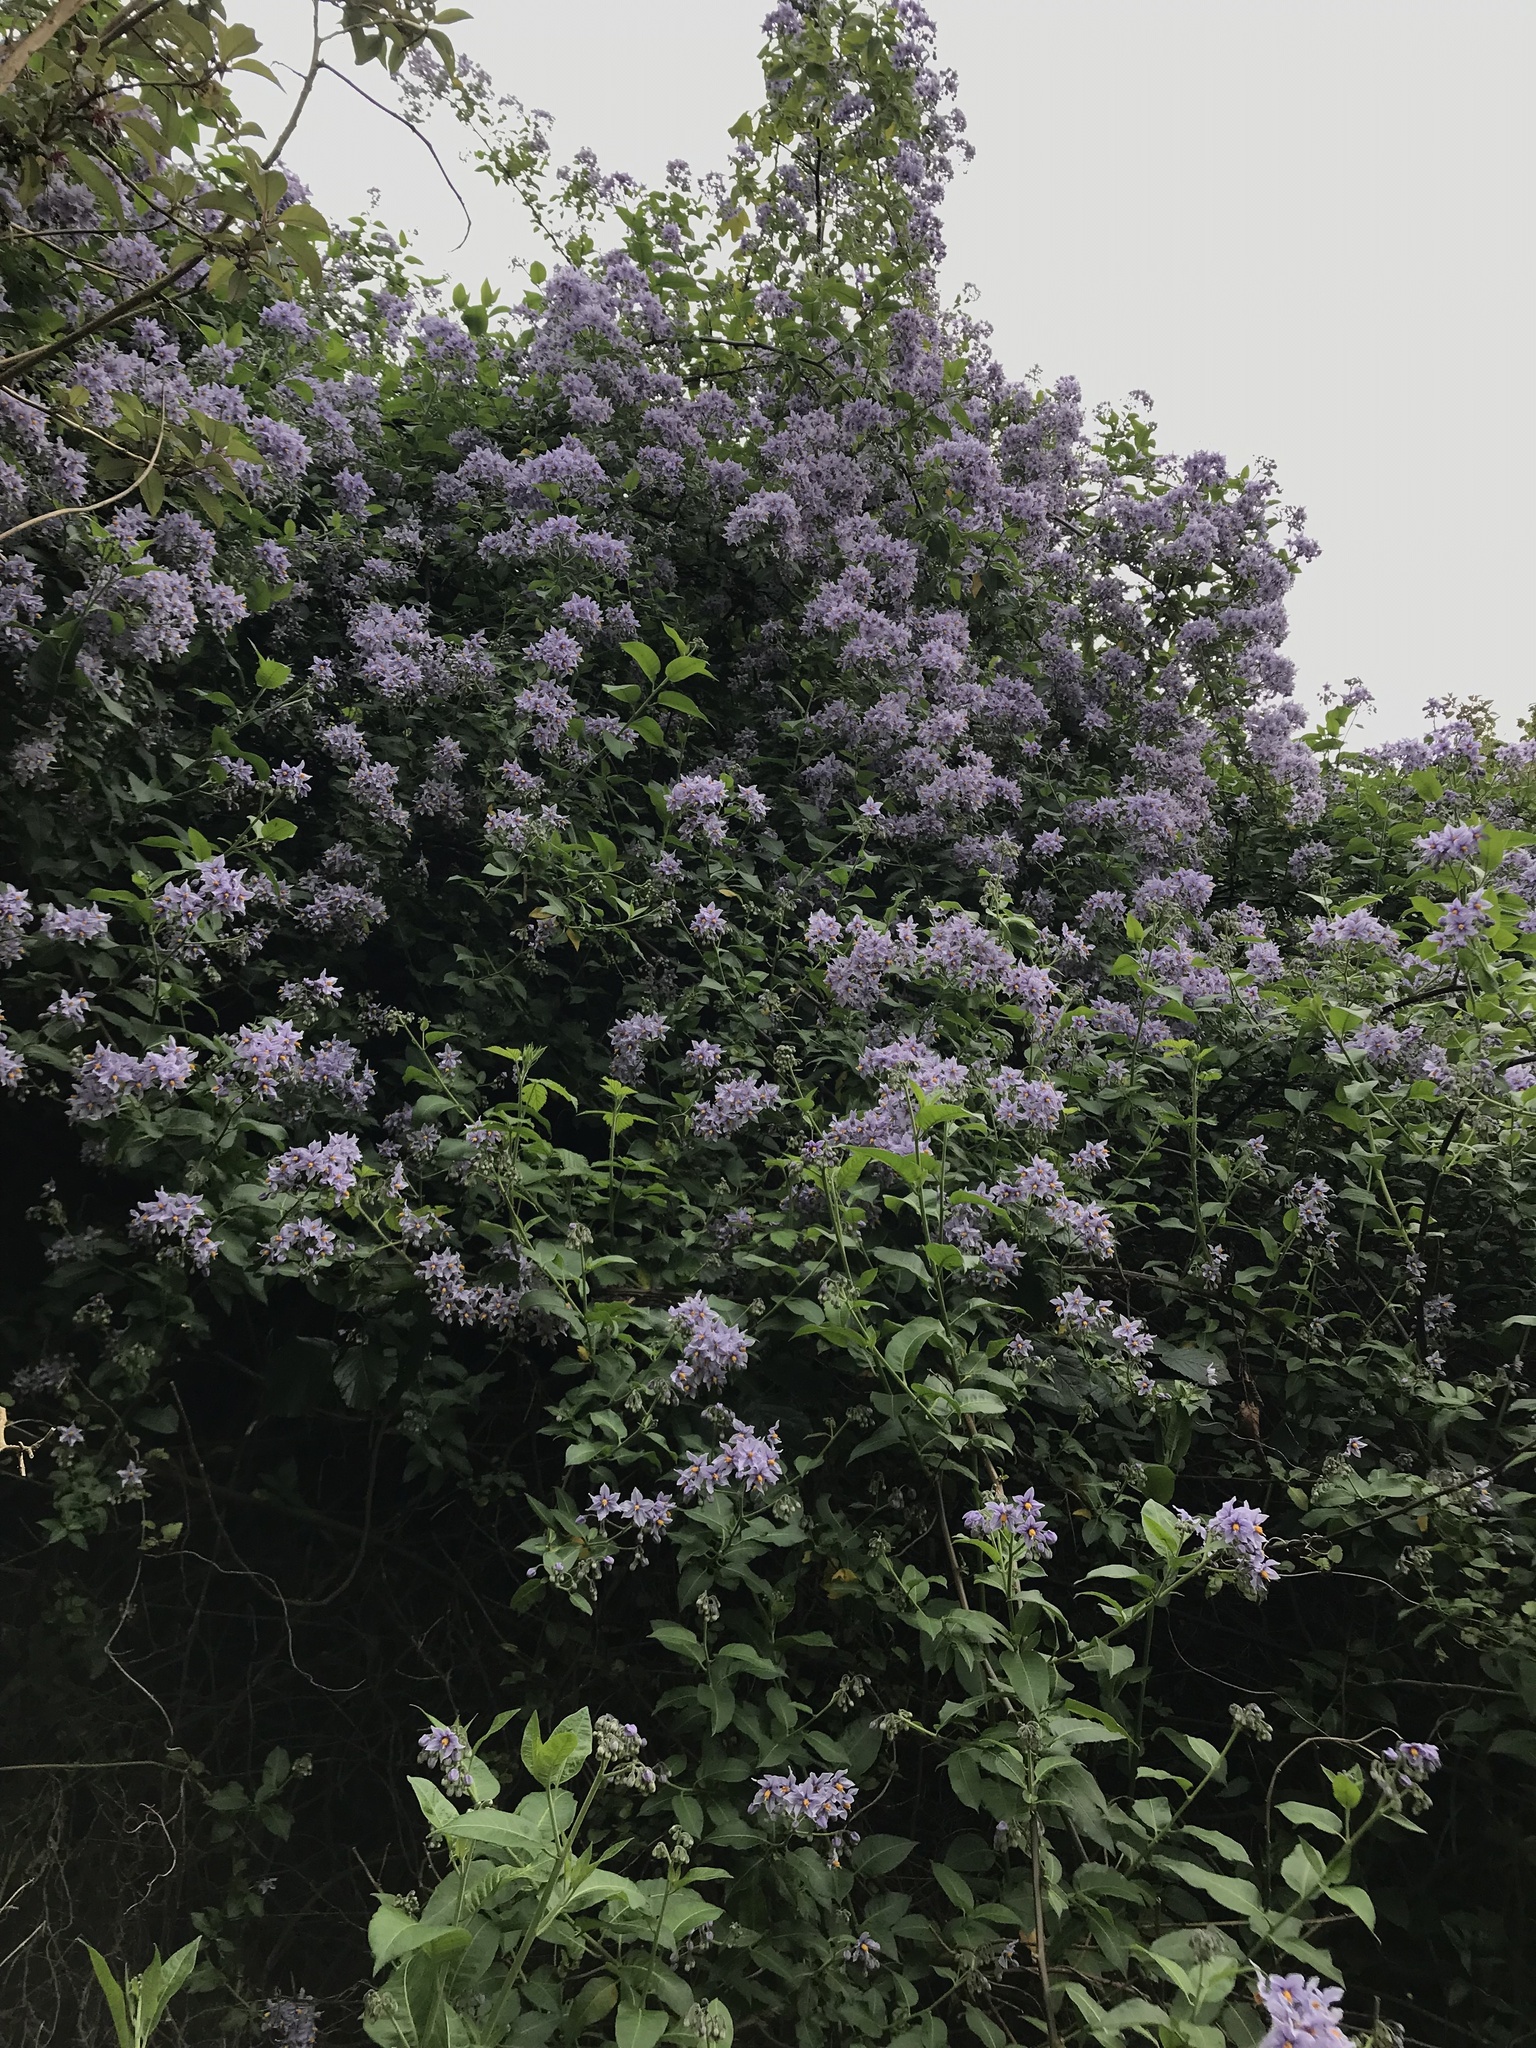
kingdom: Plantae
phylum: Tracheophyta
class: Magnoliopsida
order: Solanales
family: Solanaceae
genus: Solanum
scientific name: Solanum crispum
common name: Chilean nightshade
